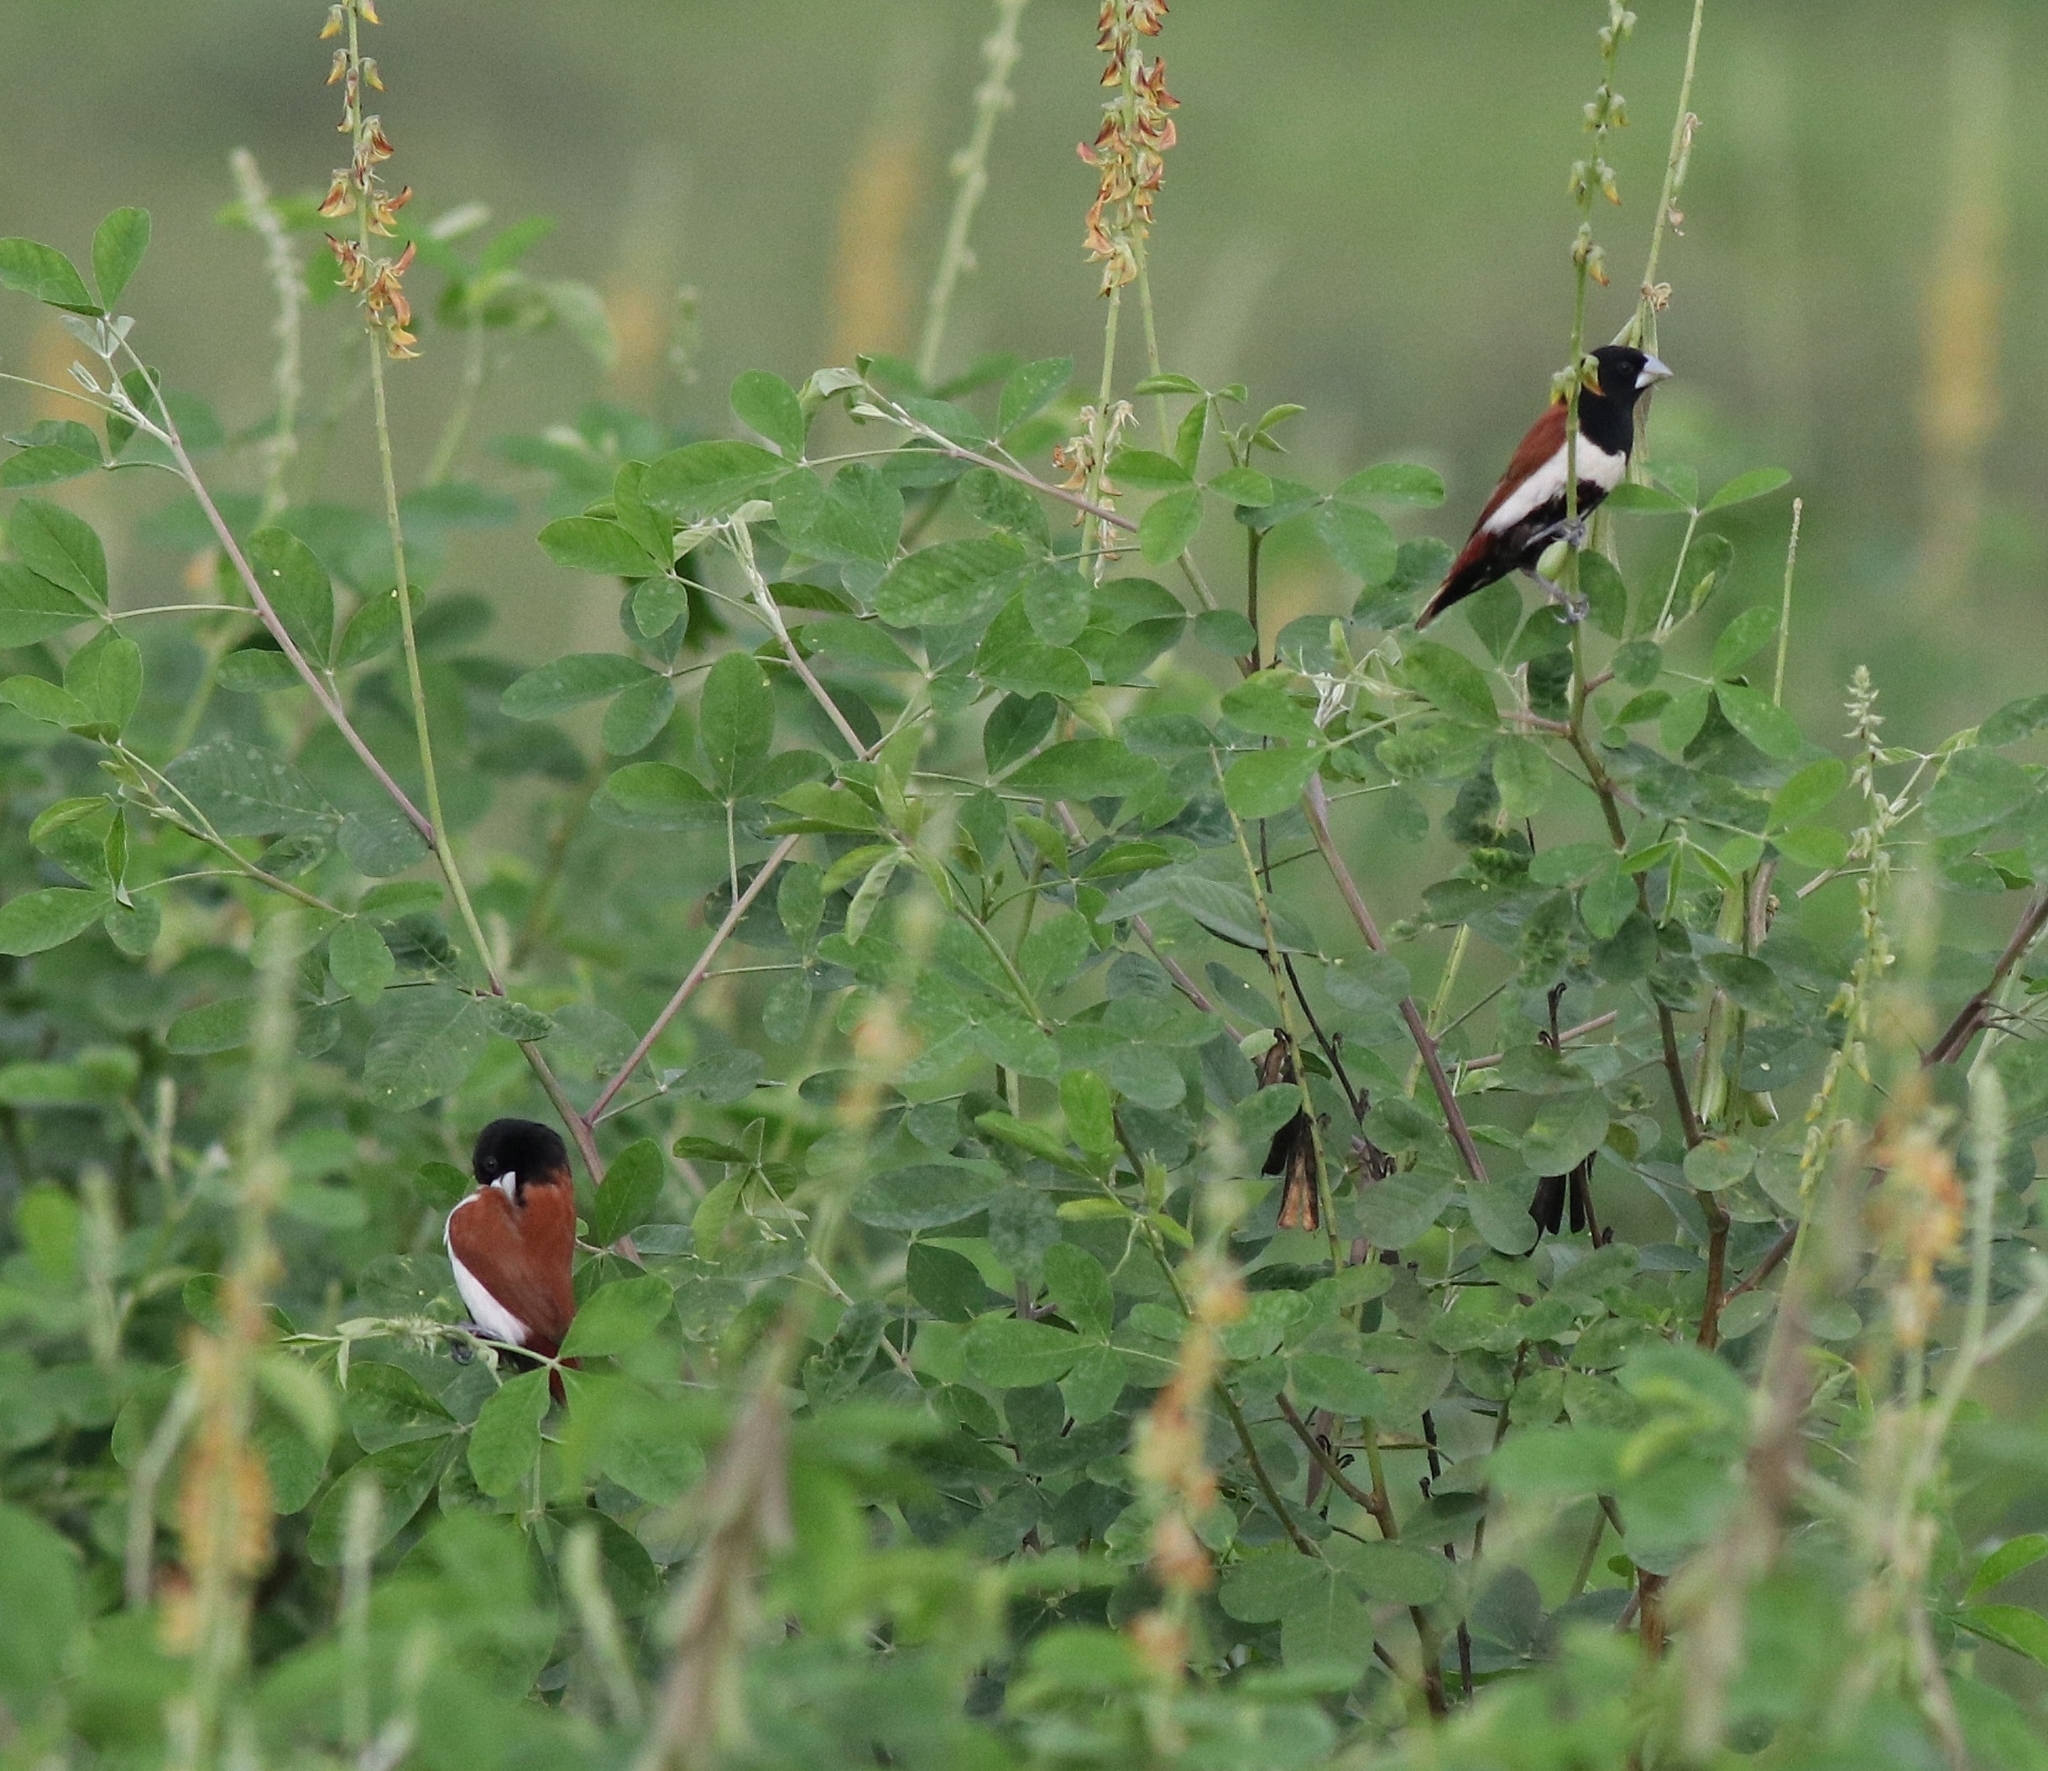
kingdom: Animalia
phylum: Chordata
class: Aves
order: Passeriformes
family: Estrildidae
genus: Lonchura
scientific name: Lonchura malacca
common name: Tricolored munia
